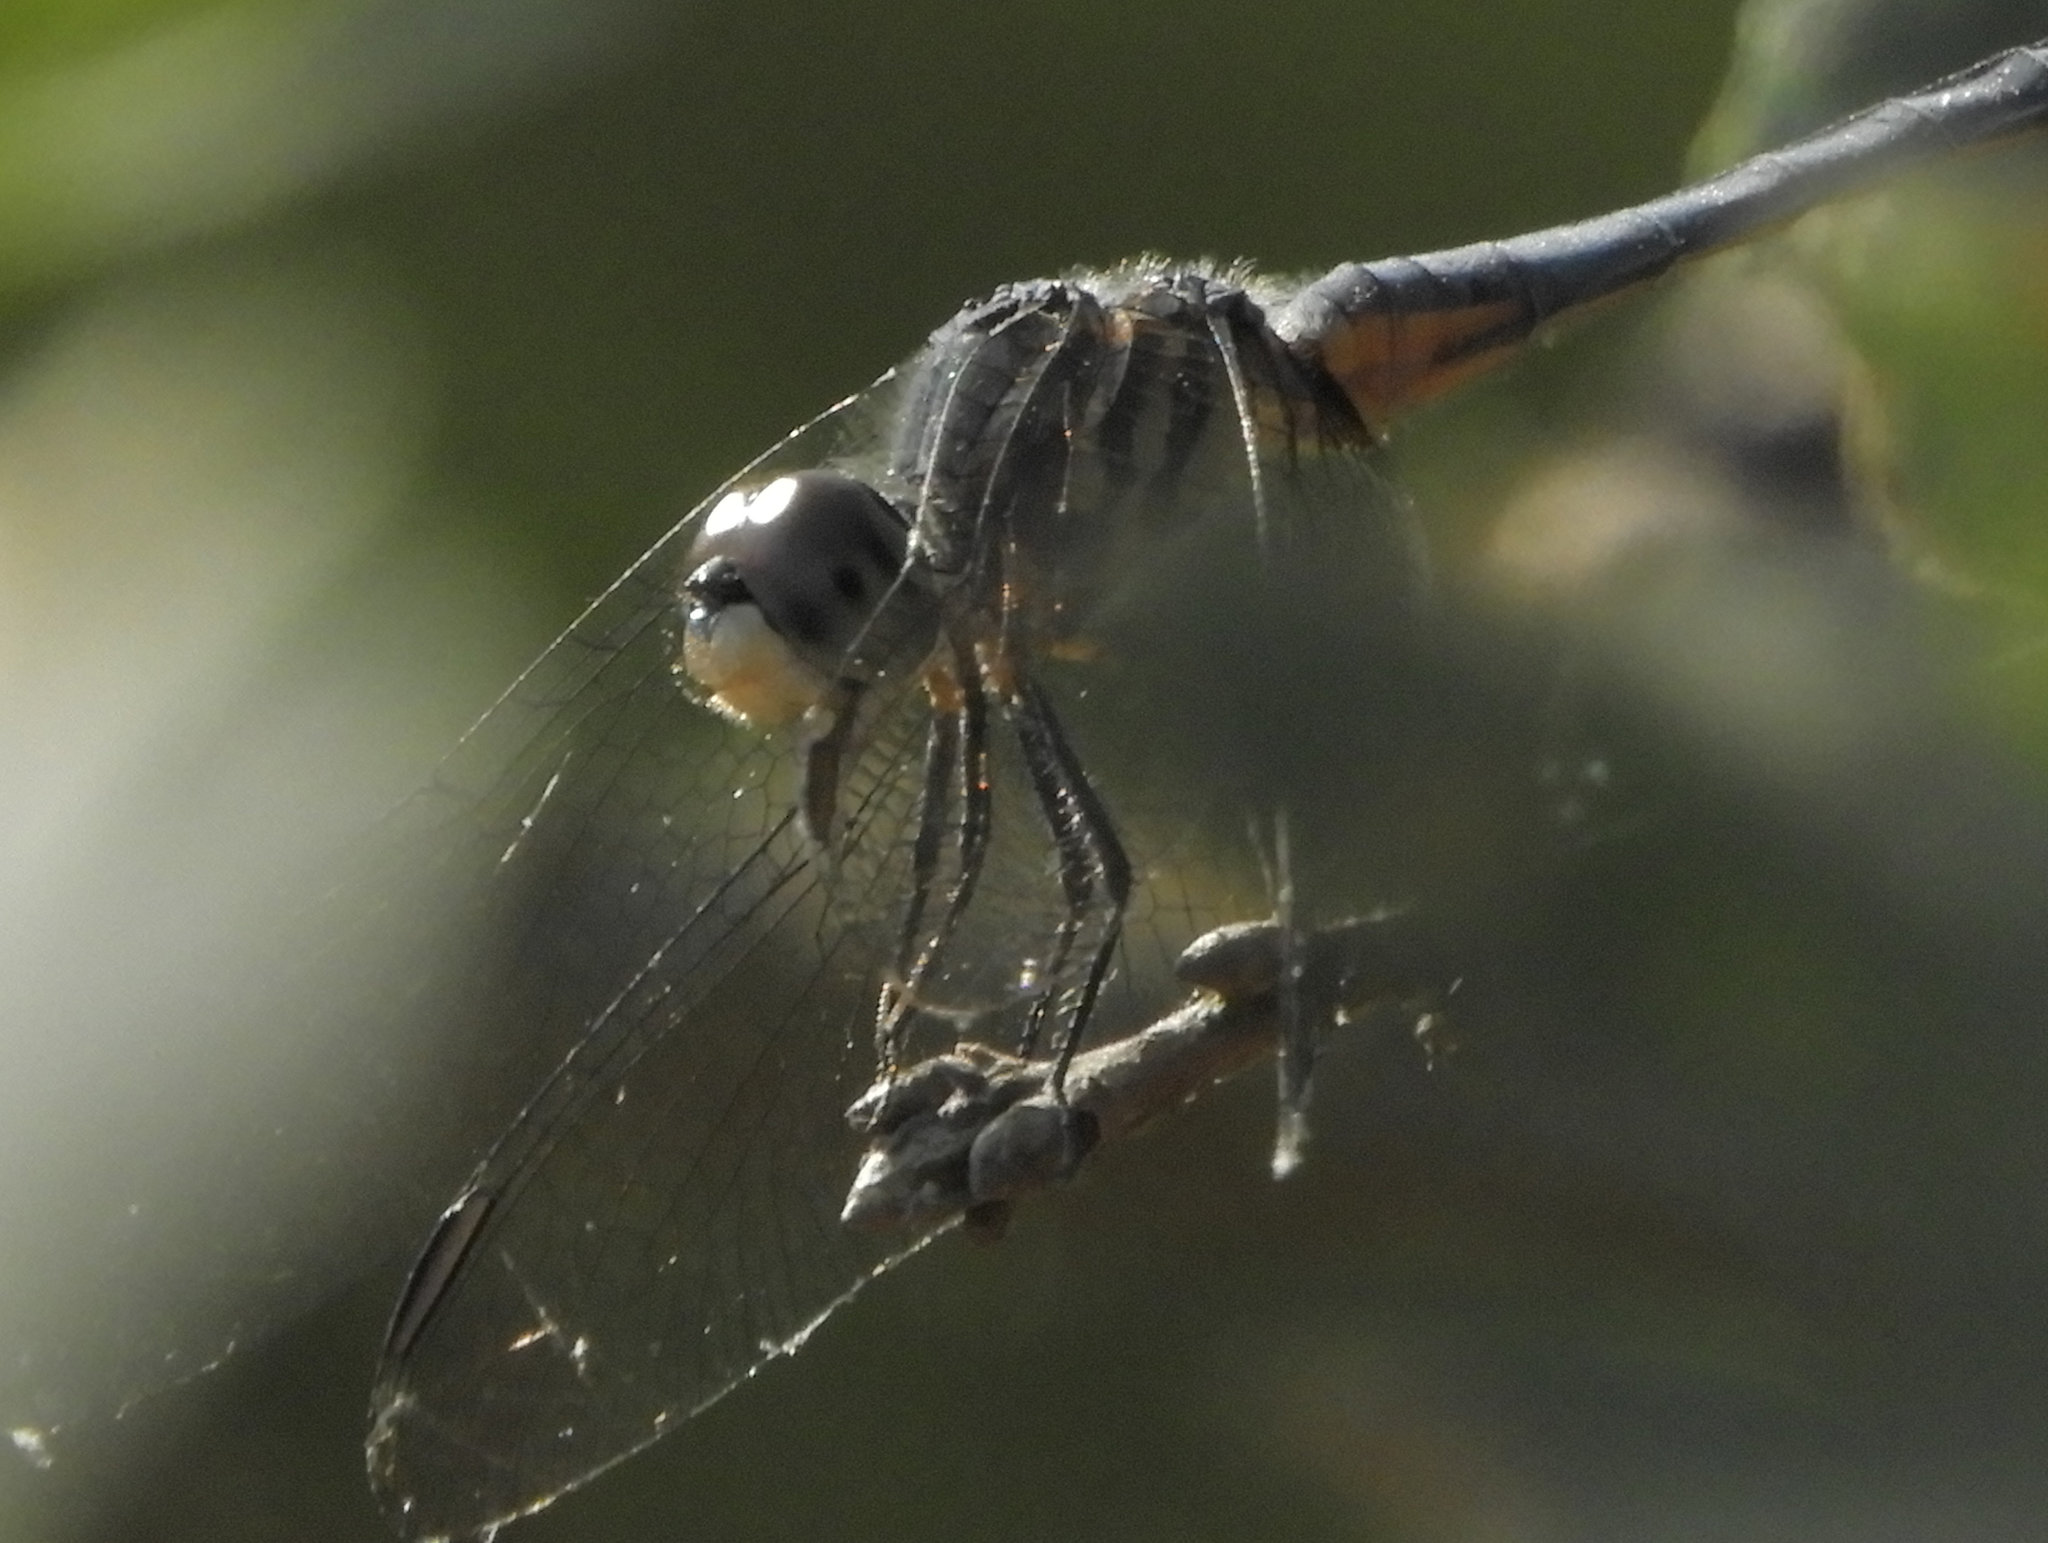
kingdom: Animalia
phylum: Arthropoda
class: Insecta
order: Odonata
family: Libellulidae
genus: Pachydiplax
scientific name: Pachydiplax longipennis
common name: Blue dasher
